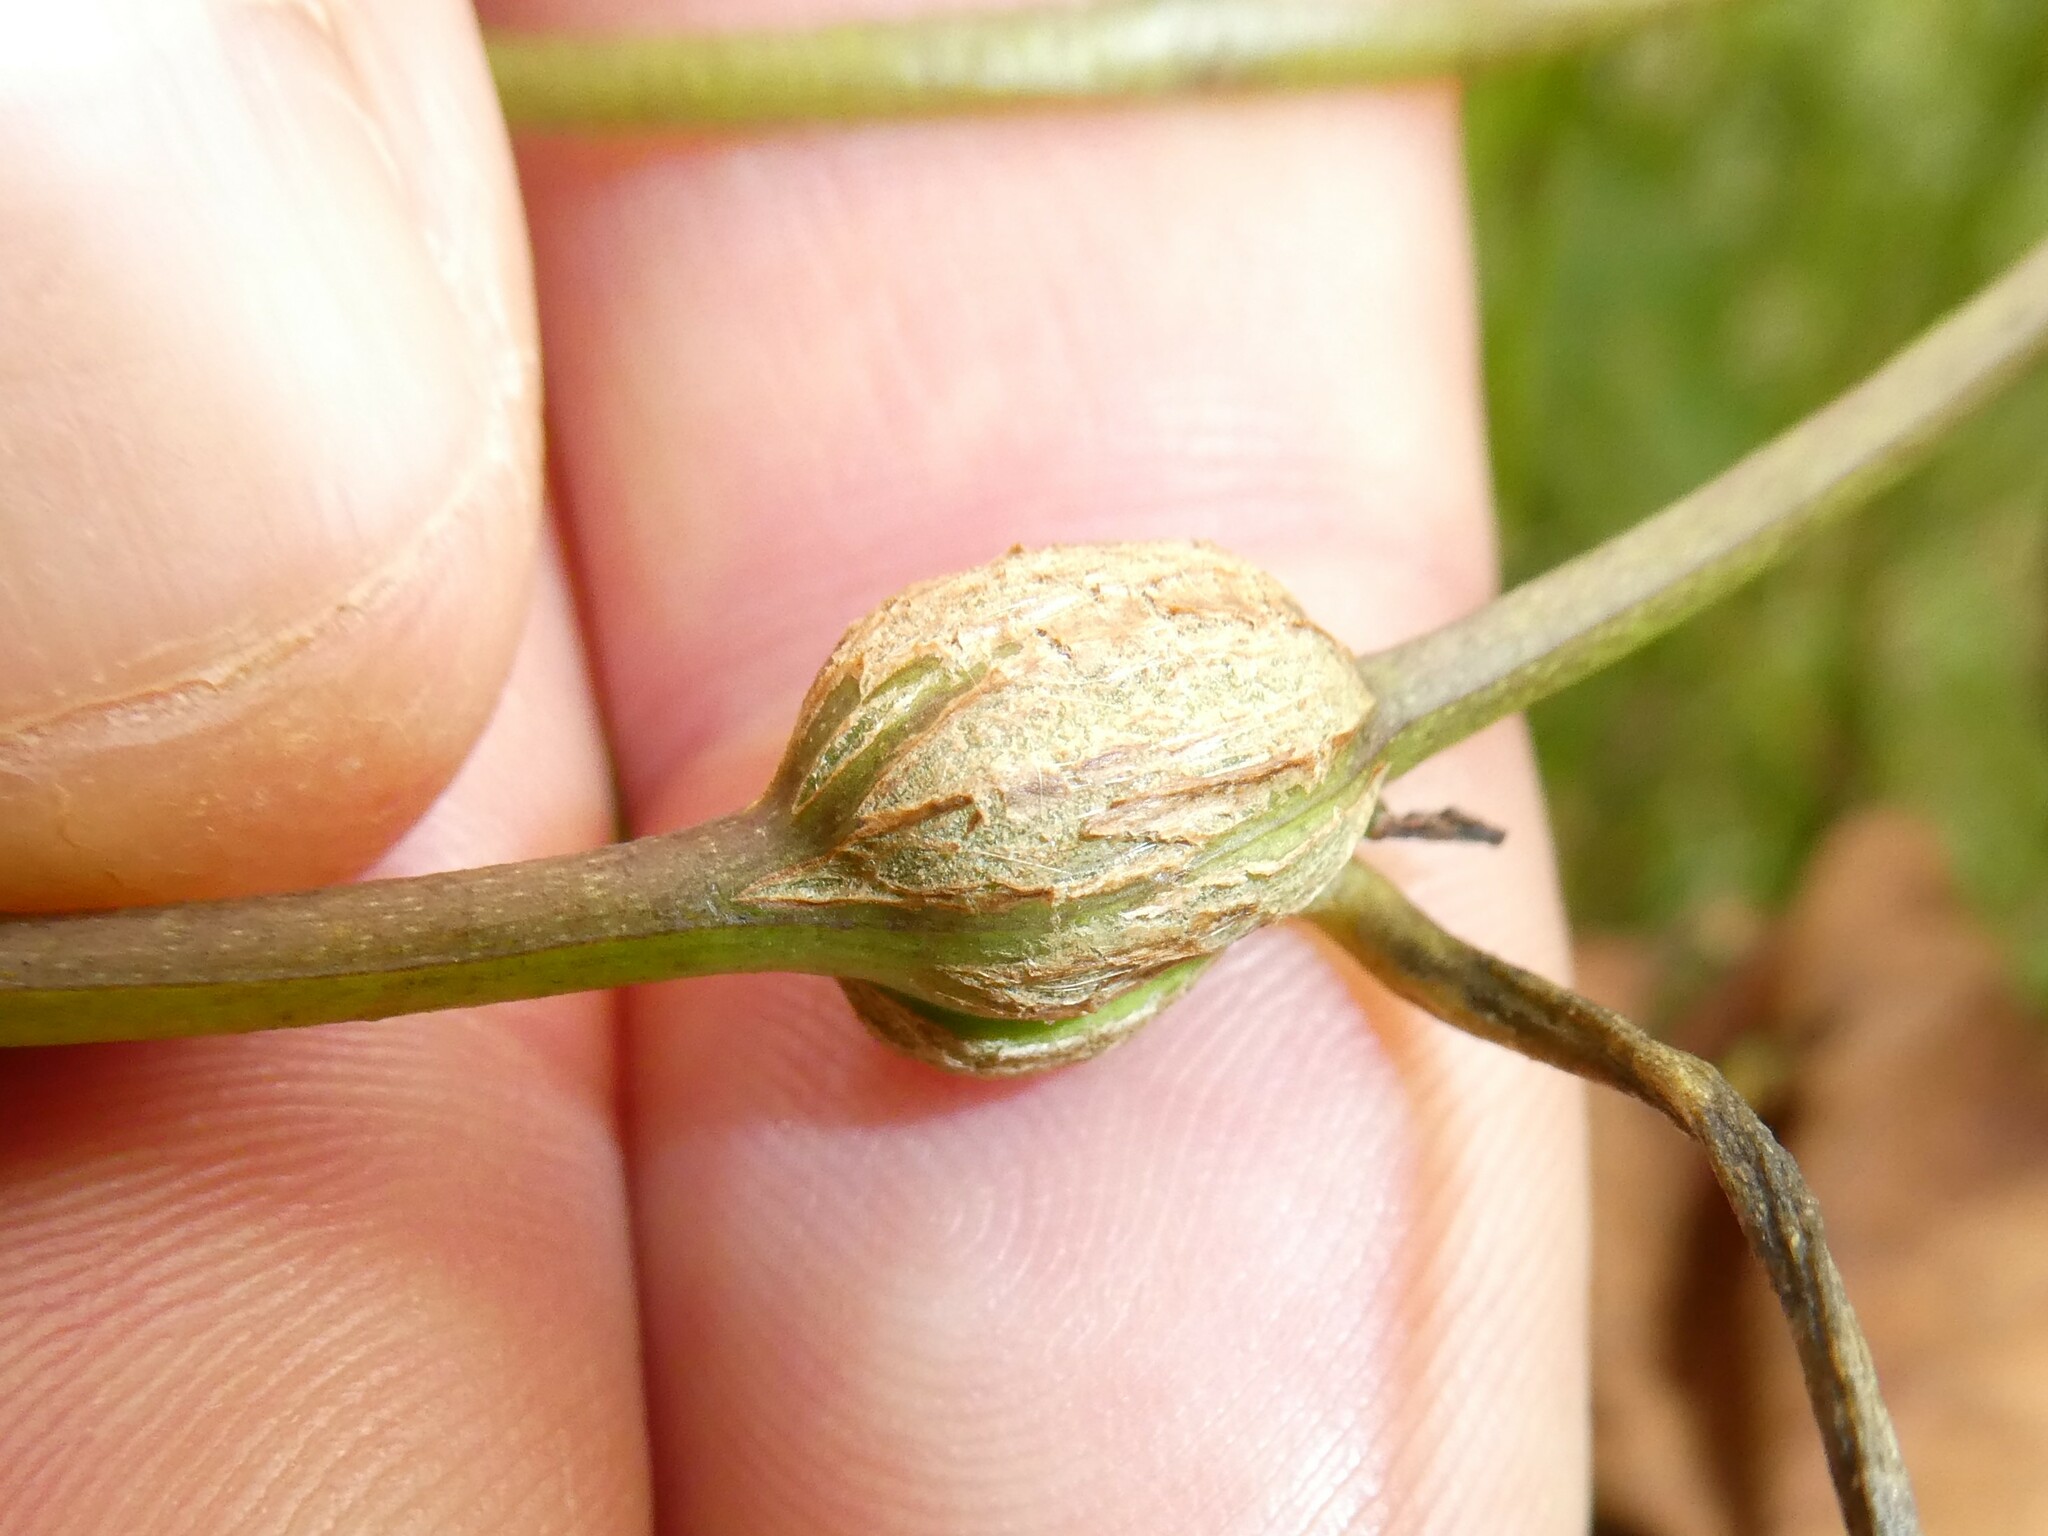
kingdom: Animalia
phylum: Arthropoda
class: Insecta
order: Diptera
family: Cecidomyiidae
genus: Neolasioptera
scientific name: Neolasioptera convolvuli
